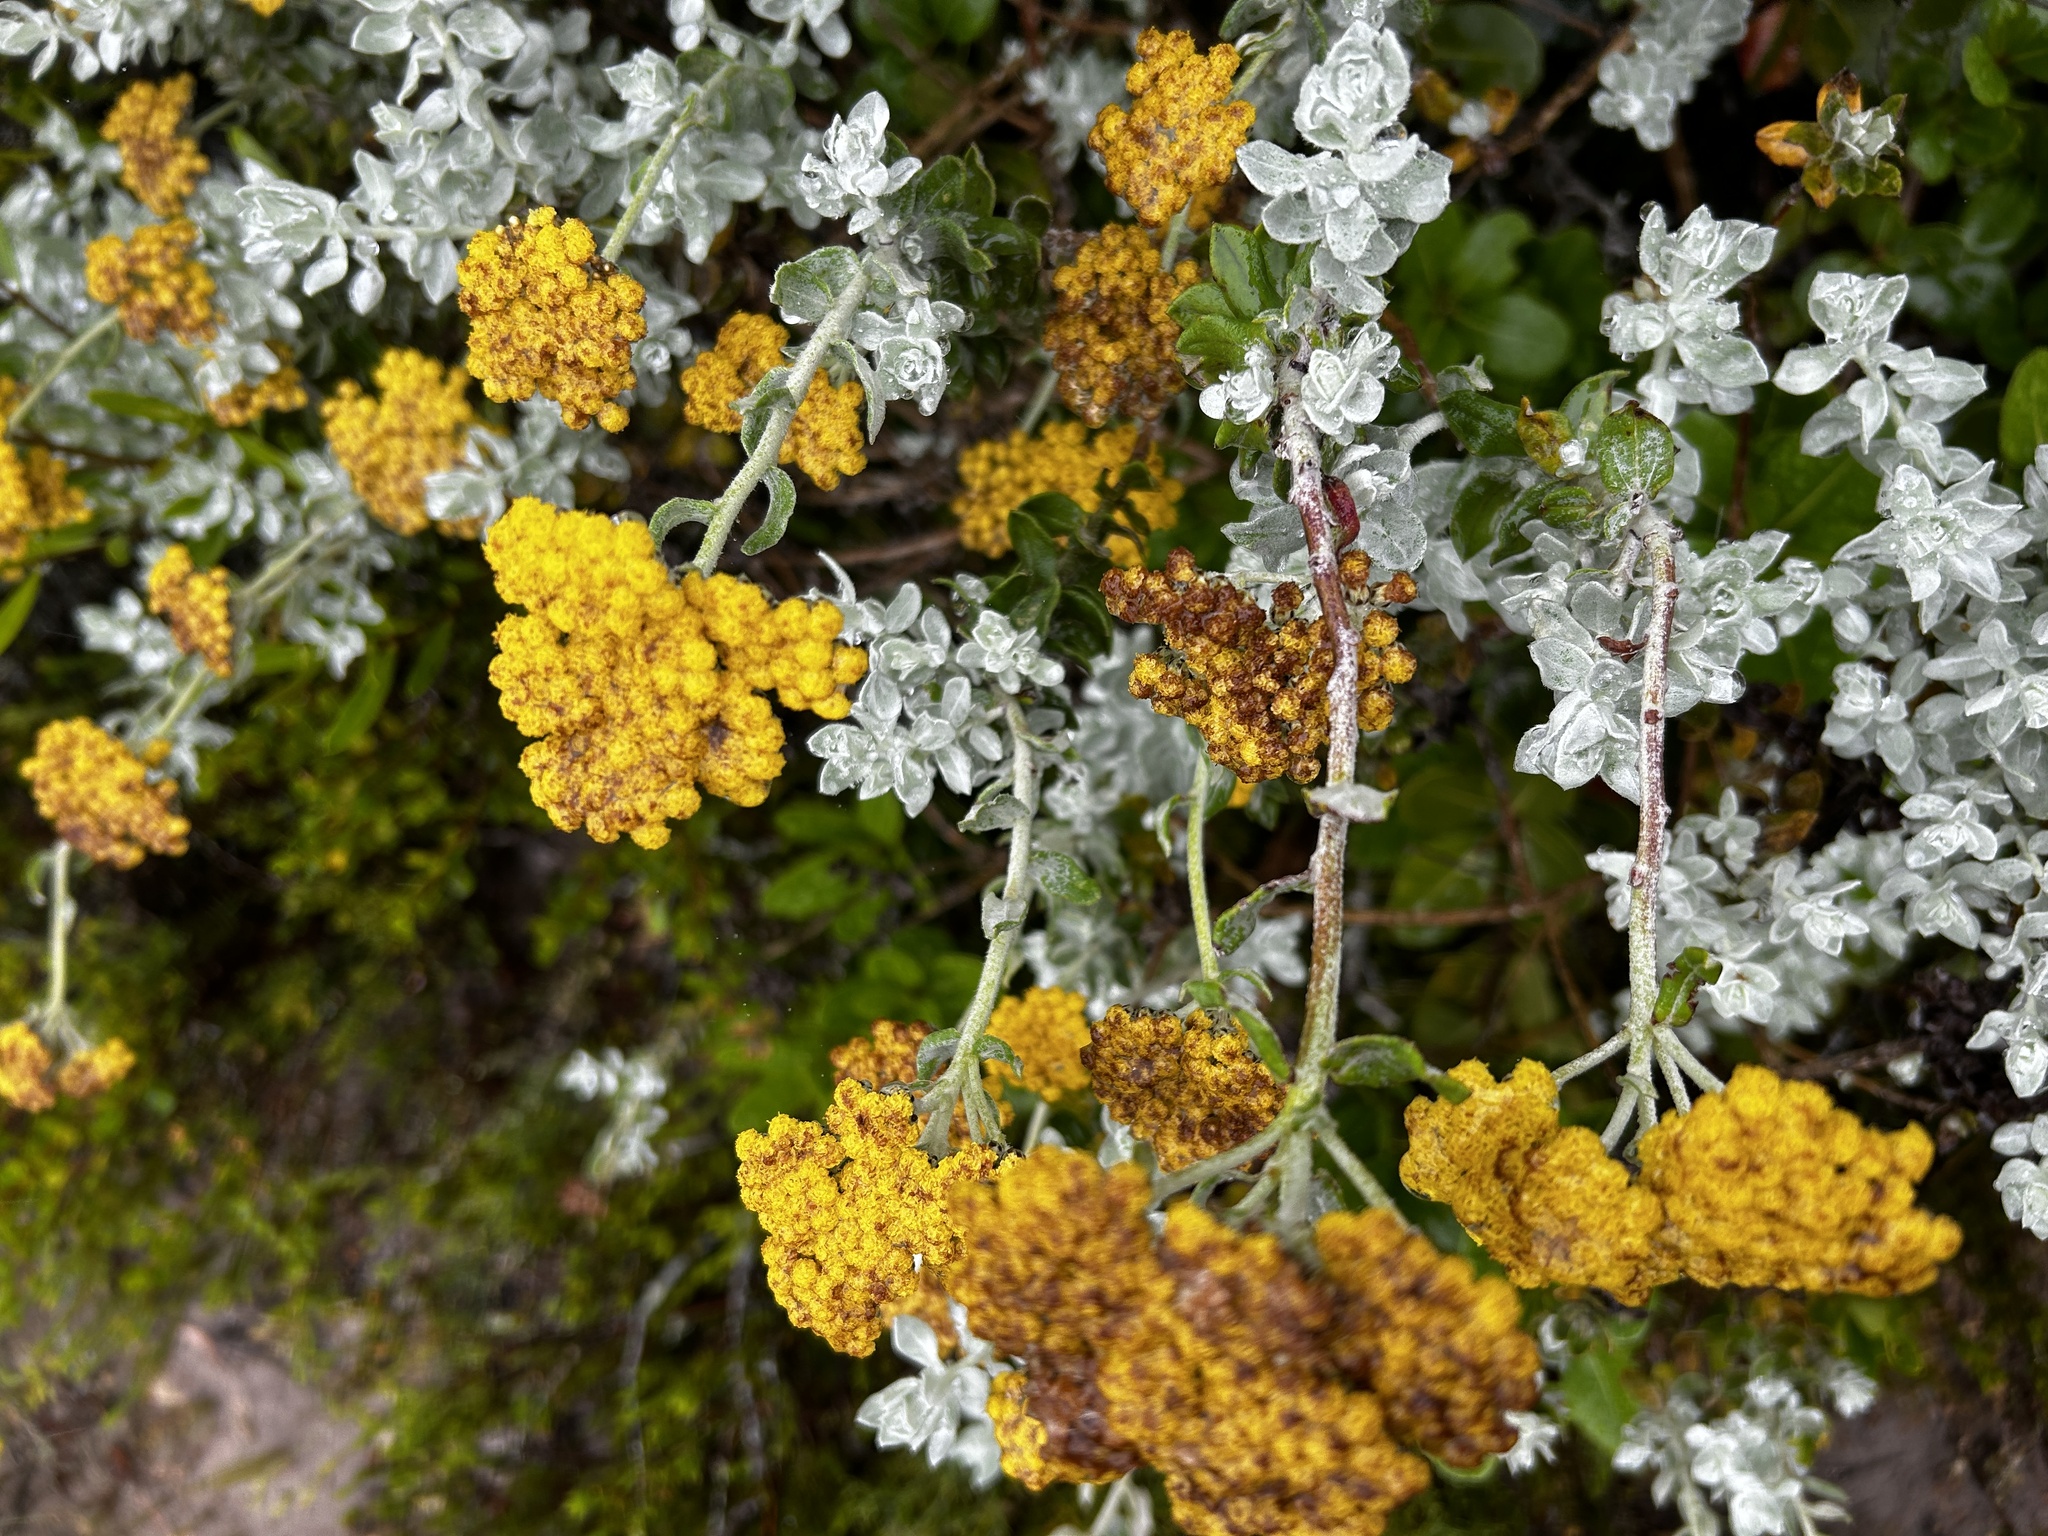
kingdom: Plantae
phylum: Tracheophyta
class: Magnoliopsida
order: Asterales
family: Asteraceae
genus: Helichrysum
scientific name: Helichrysum dasyanthum
